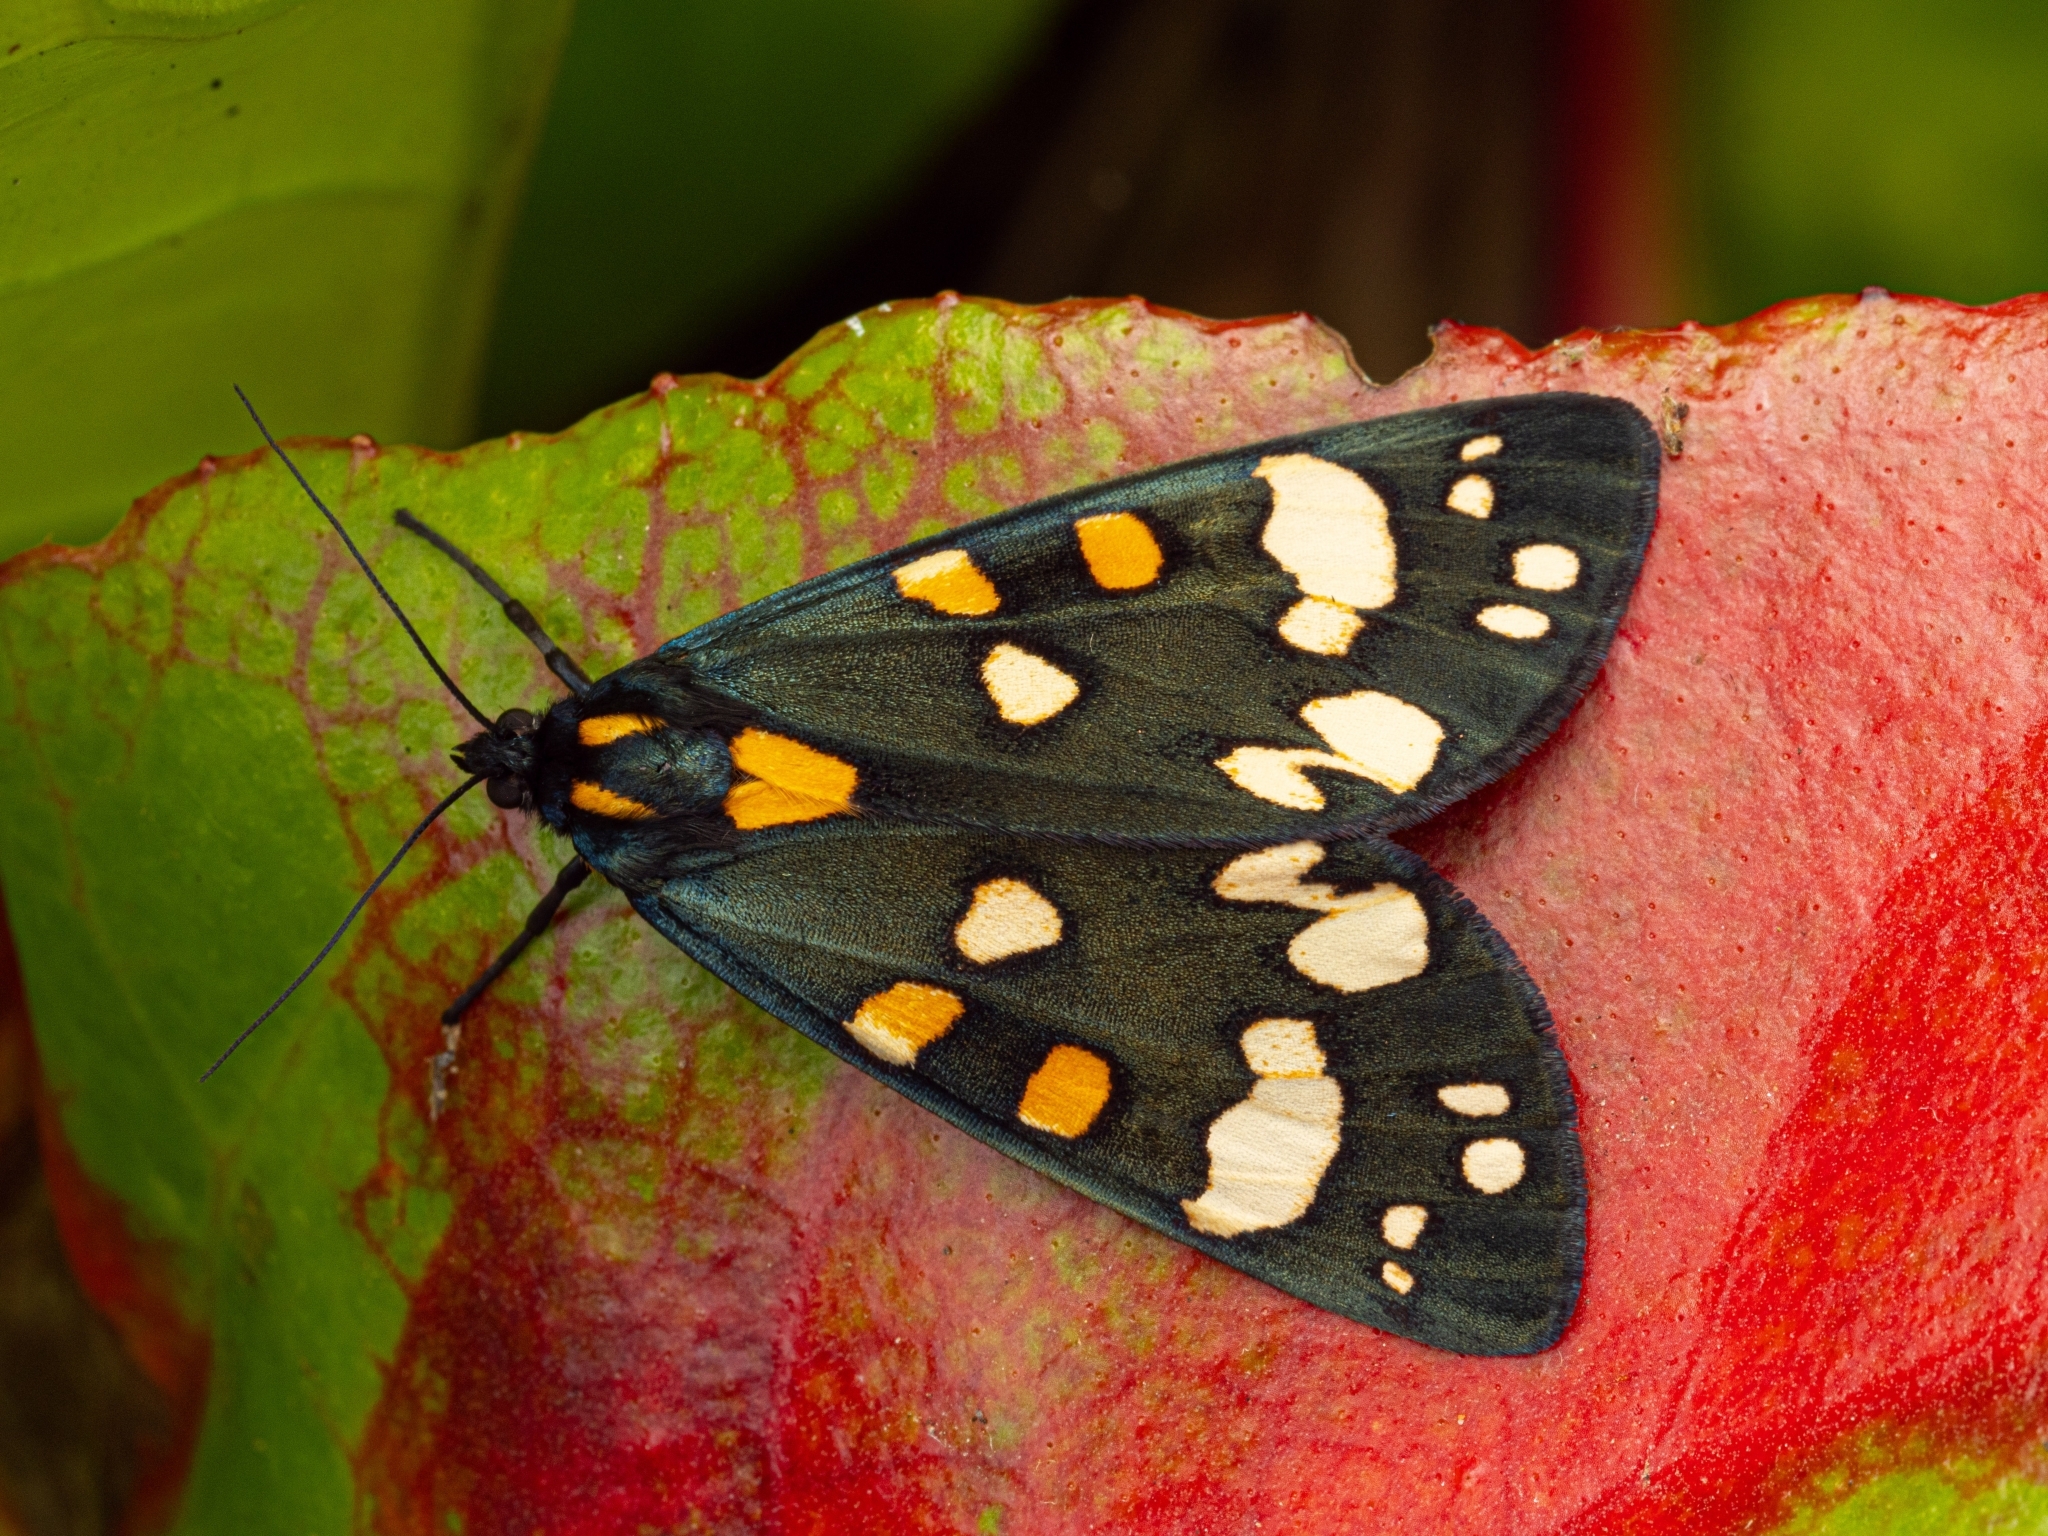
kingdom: Animalia
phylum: Arthropoda
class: Insecta
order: Lepidoptera
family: Erebidae
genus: Callimorpha
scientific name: Callimorpha dominula
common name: Scarlet tiger
